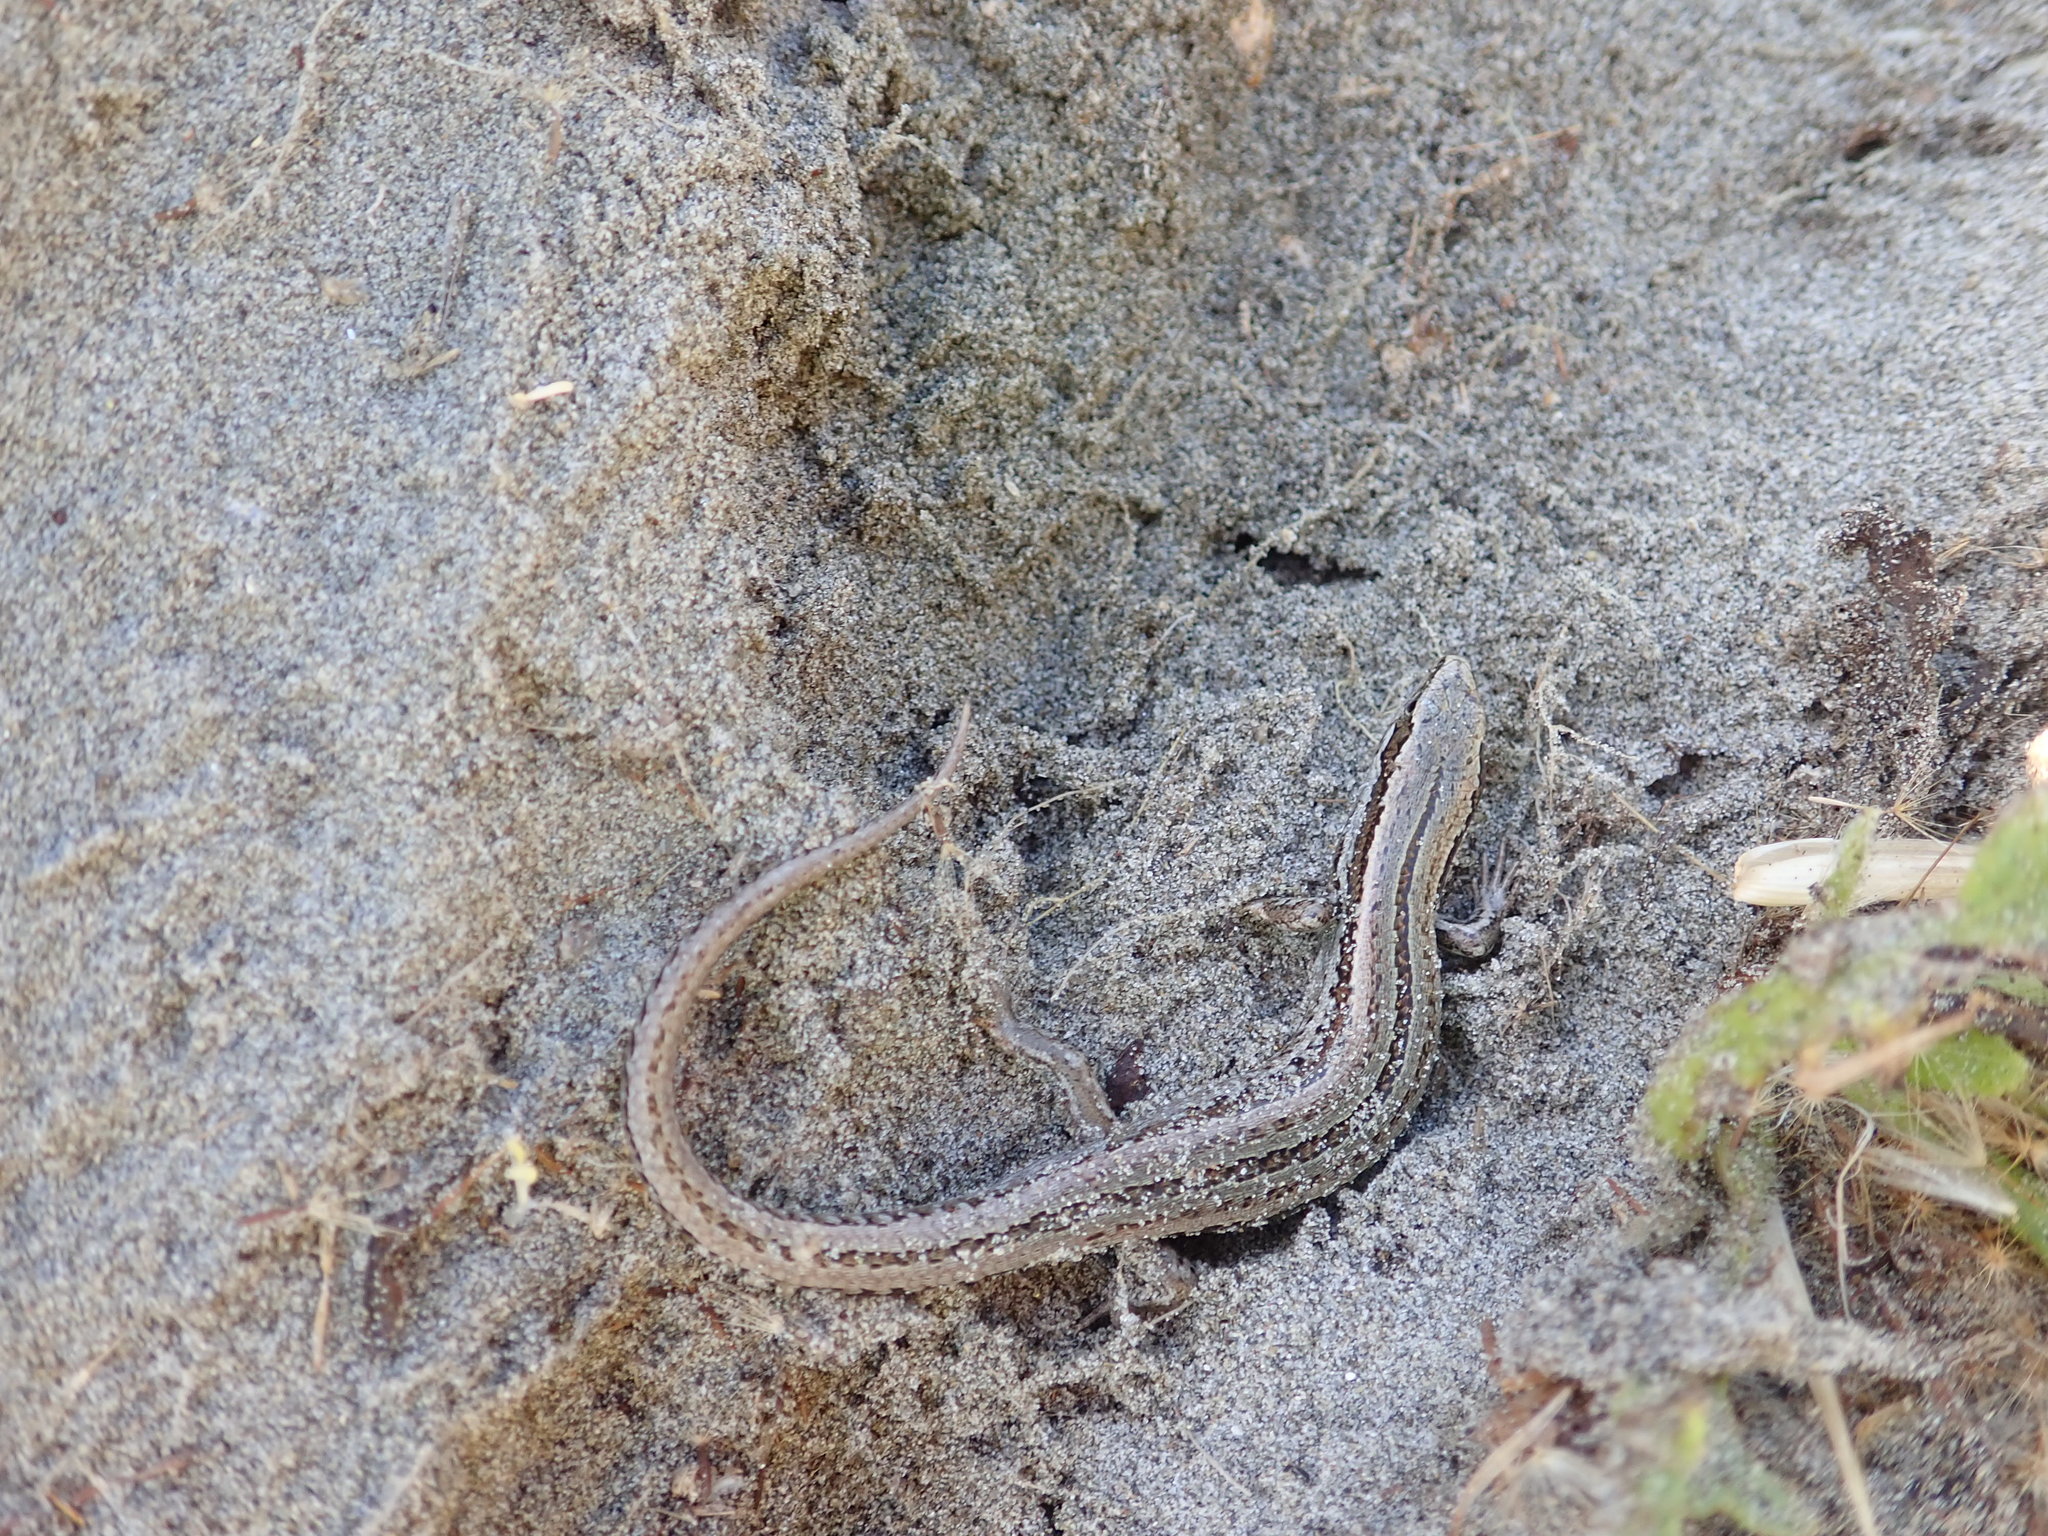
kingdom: Animalia
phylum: Chordata
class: Squamata
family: Scincidae
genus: Oligosoma
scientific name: Oligosoma polychroma
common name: Common new zealand skink
